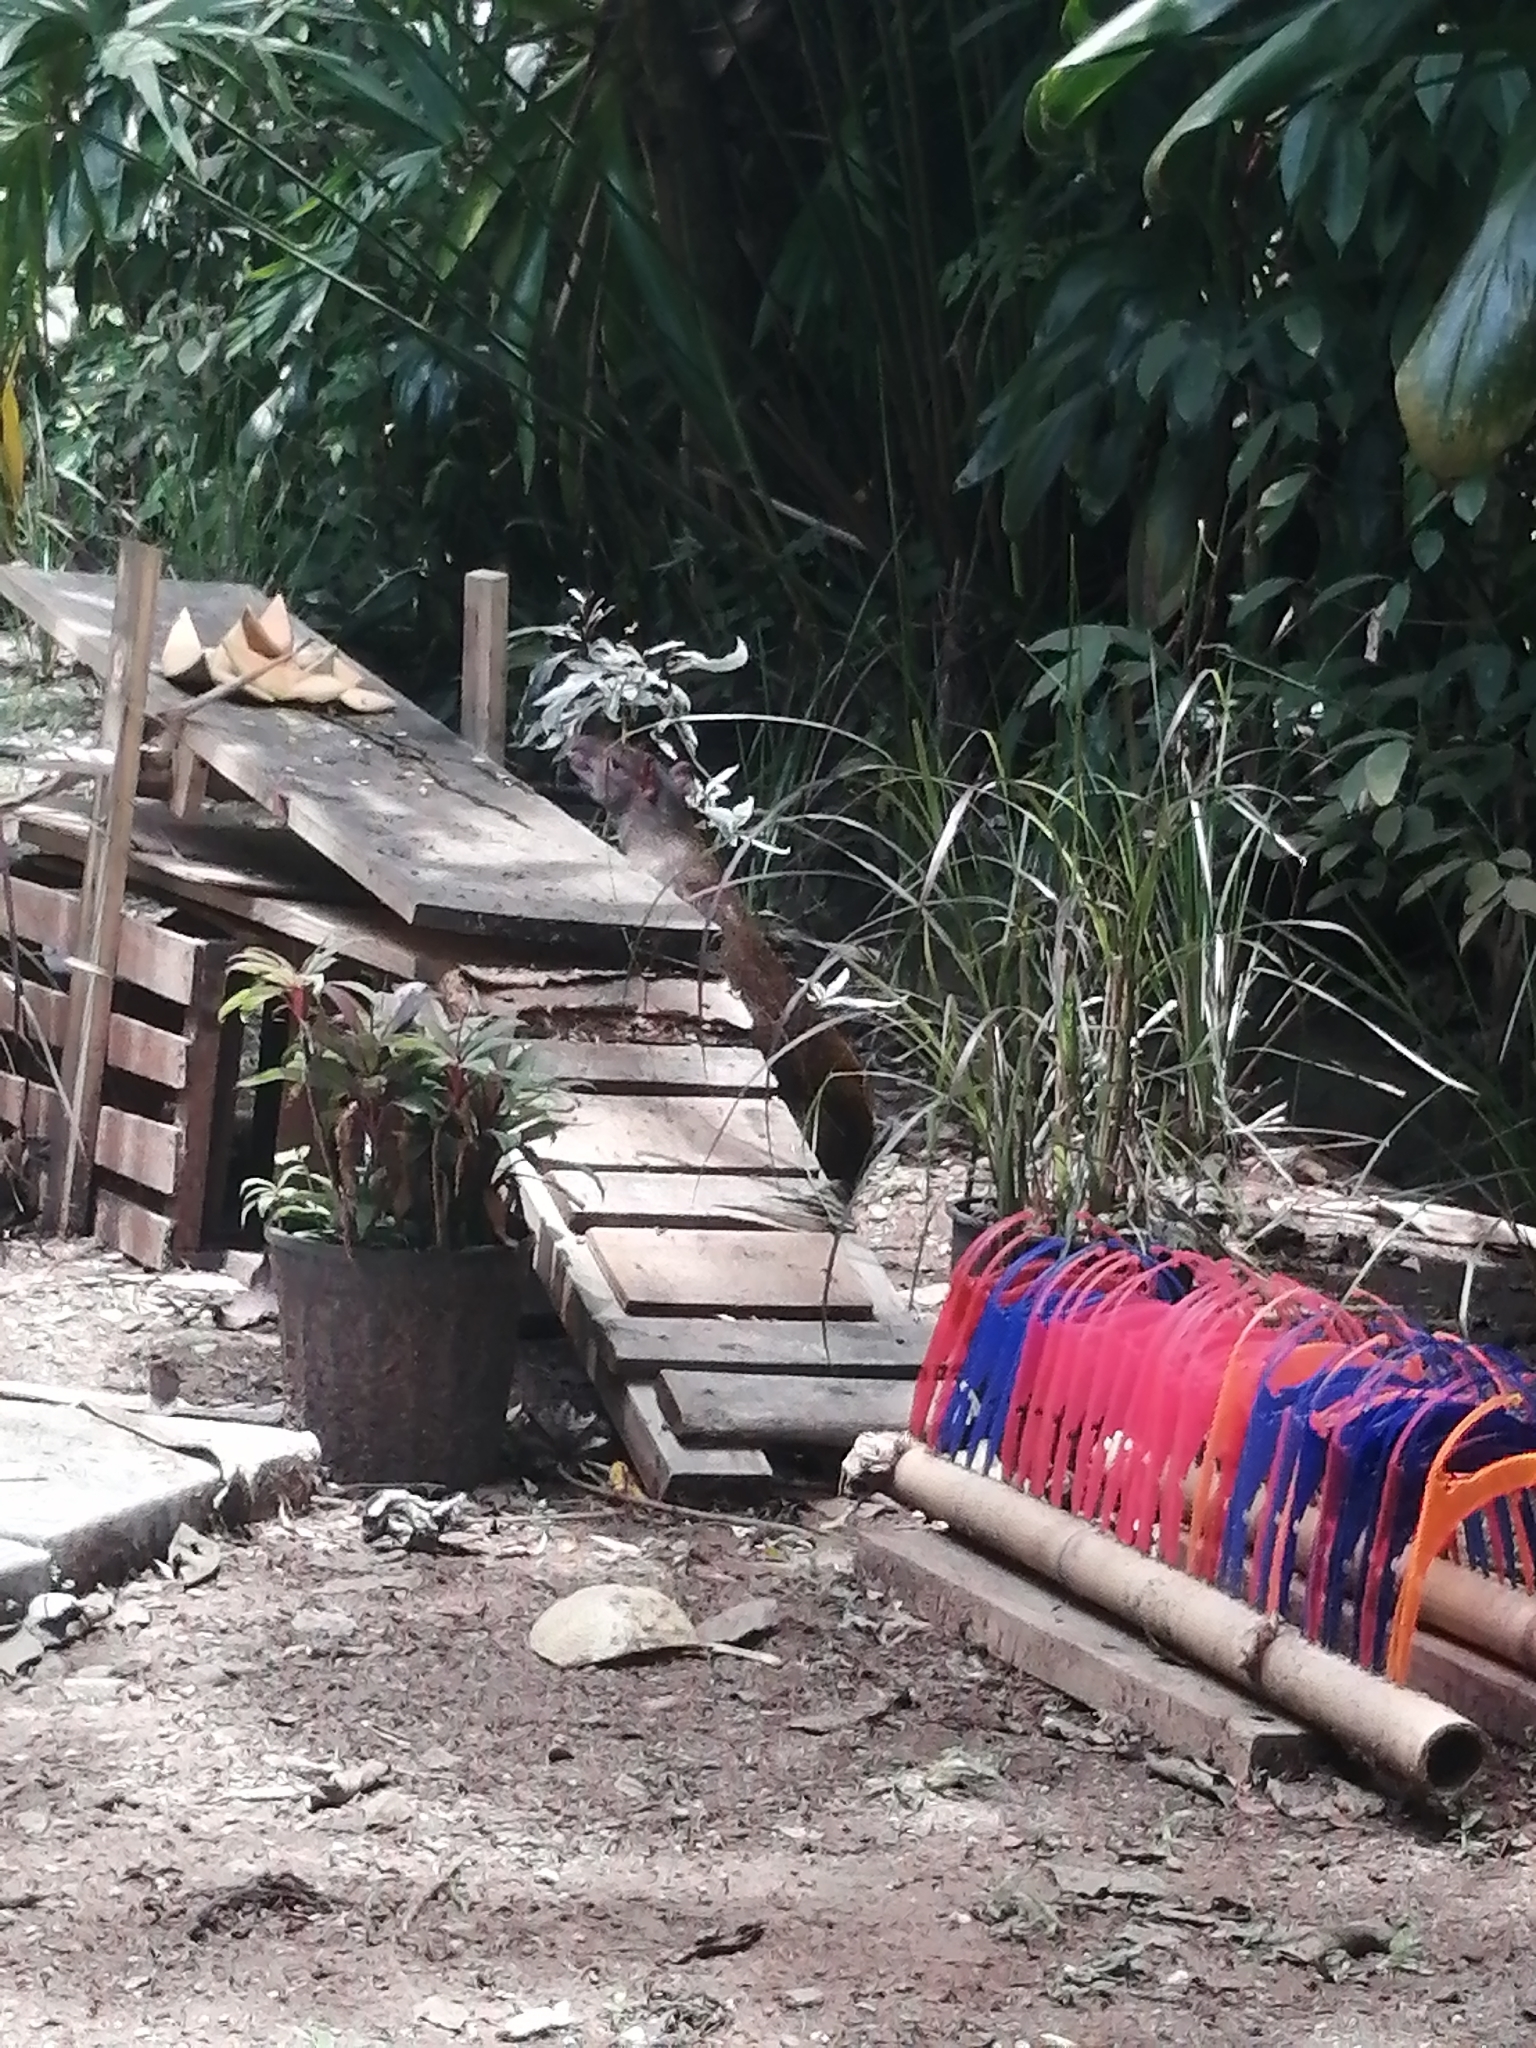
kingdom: Animalia
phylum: Chordata
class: Mammalia
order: Rodentia
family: Dasyproctidae
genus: Dasyprocta
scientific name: Dasyprocta punctata
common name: Central american agouti
